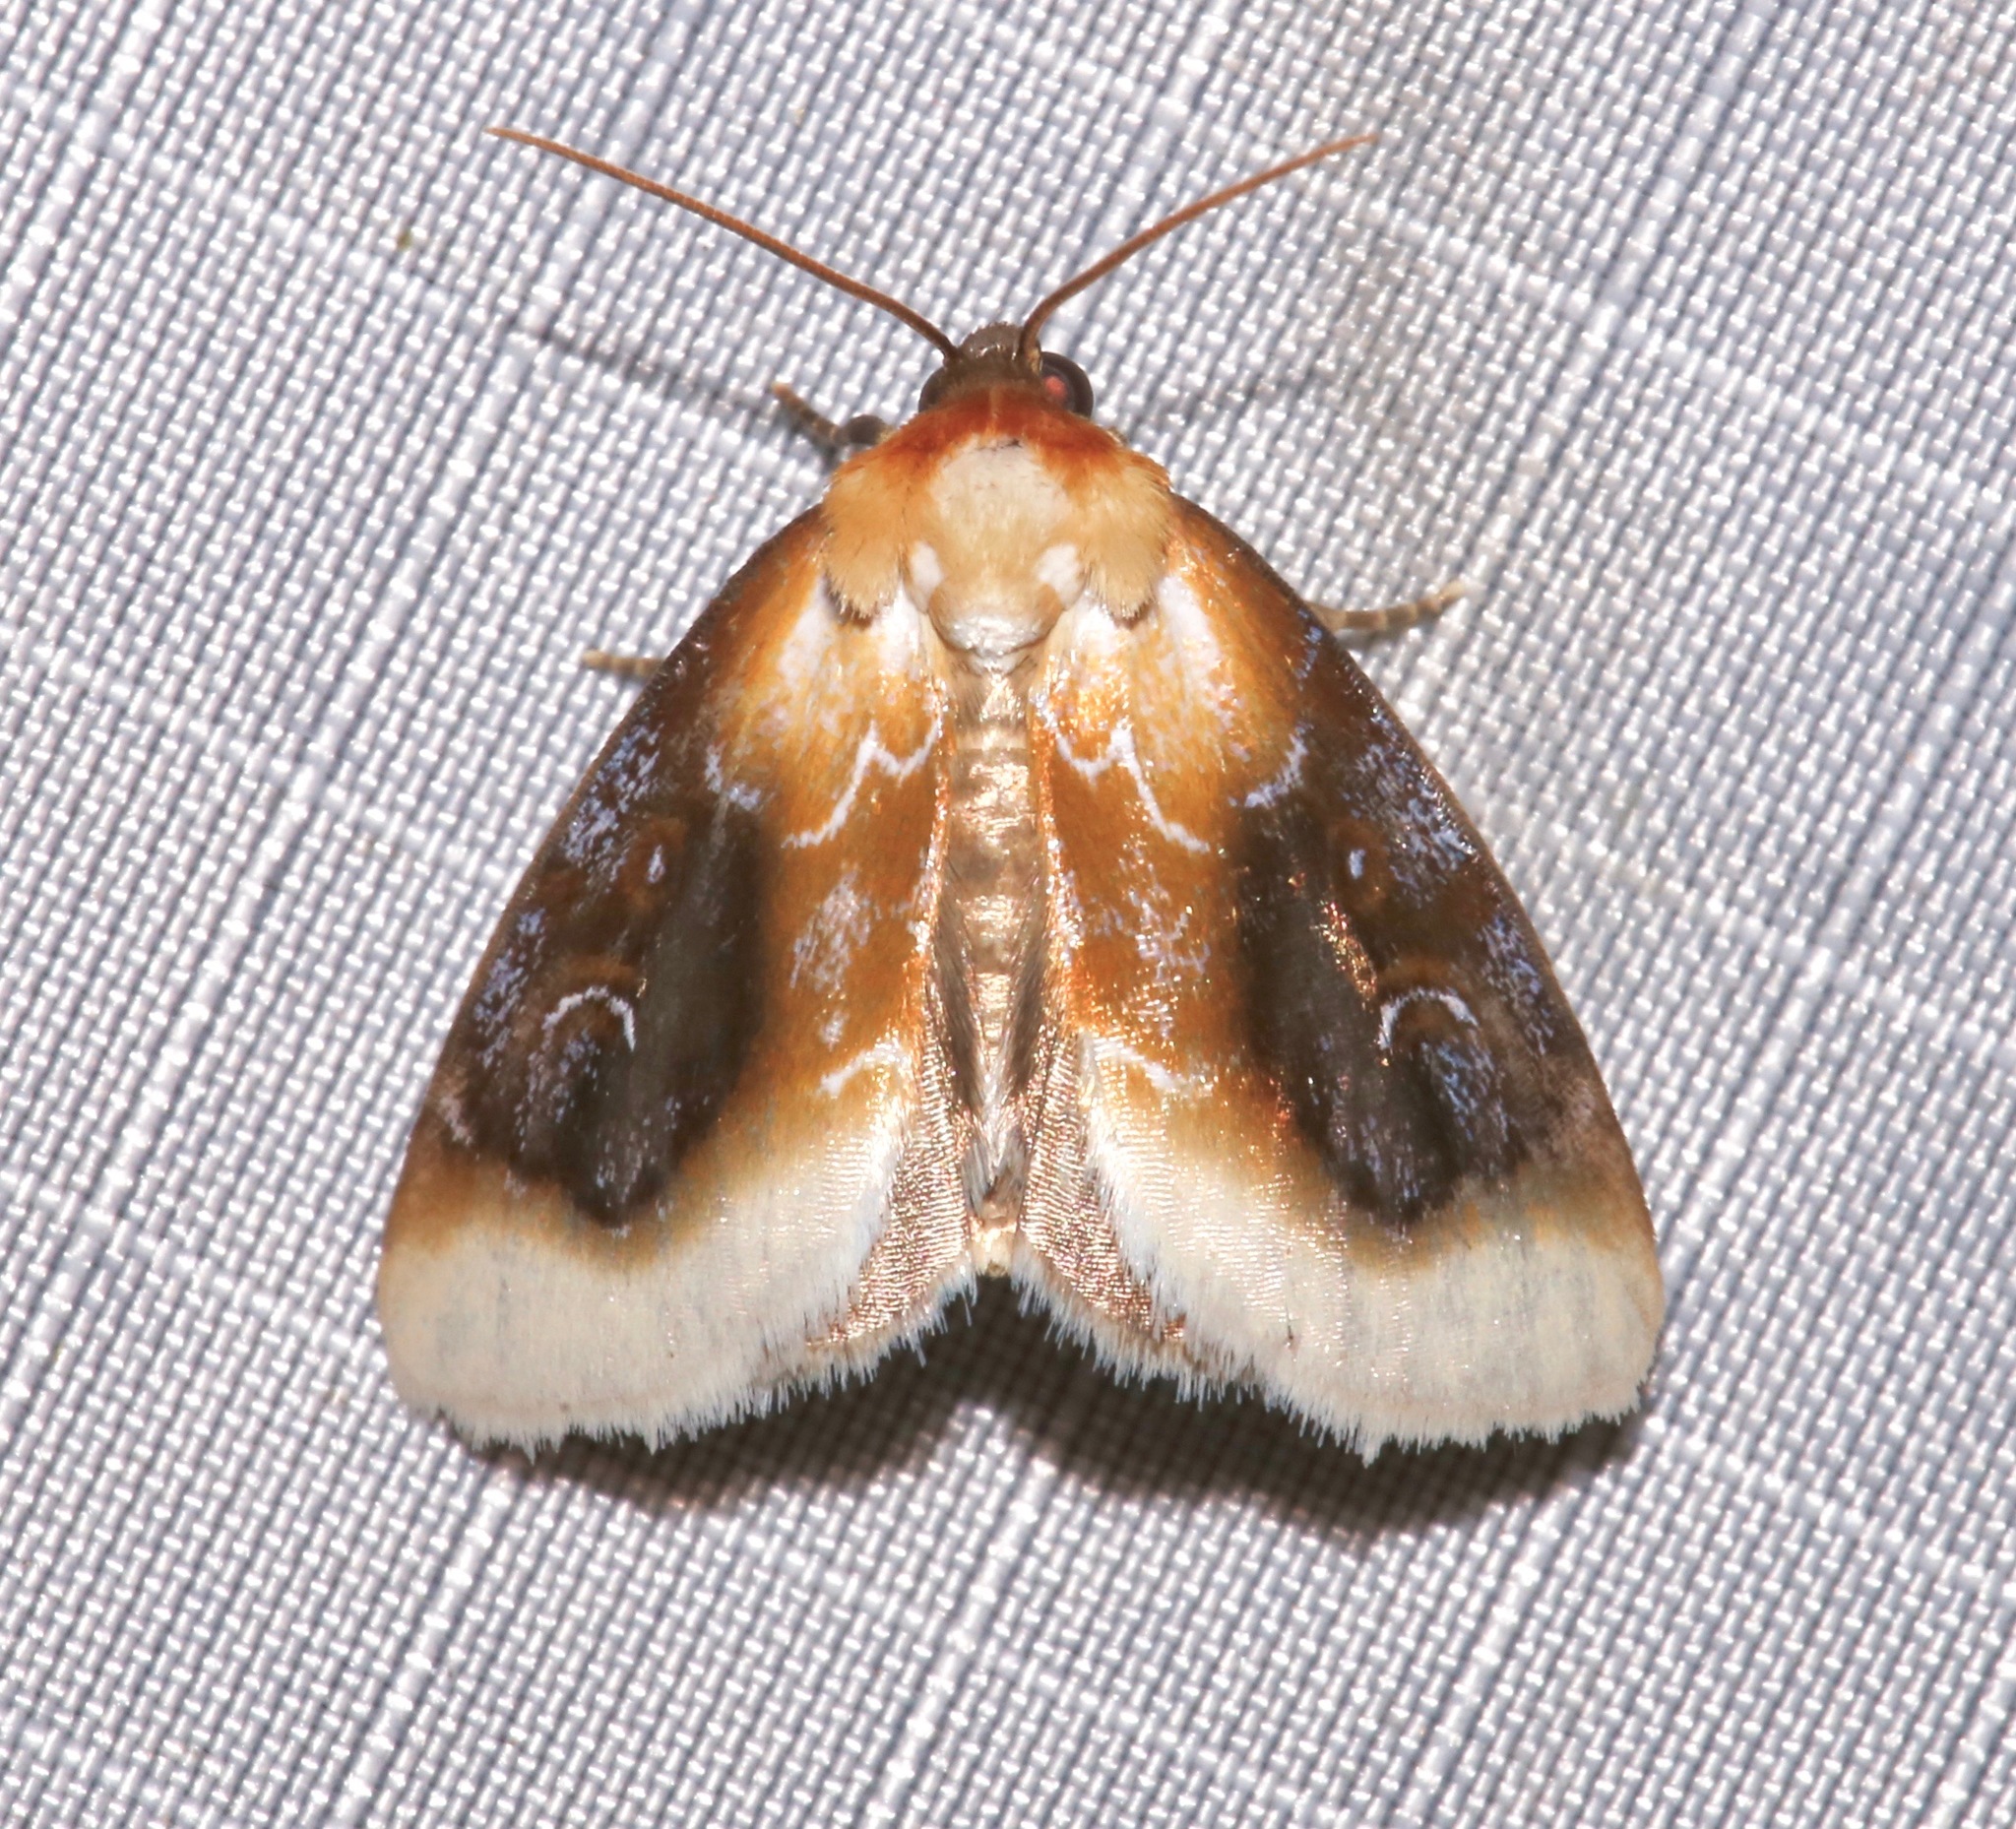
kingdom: Animalia
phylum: Arthropoda
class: Insecta
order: Lepidoptera
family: Noctuidae
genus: Chrysoecia
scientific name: Chrysoecia scira
